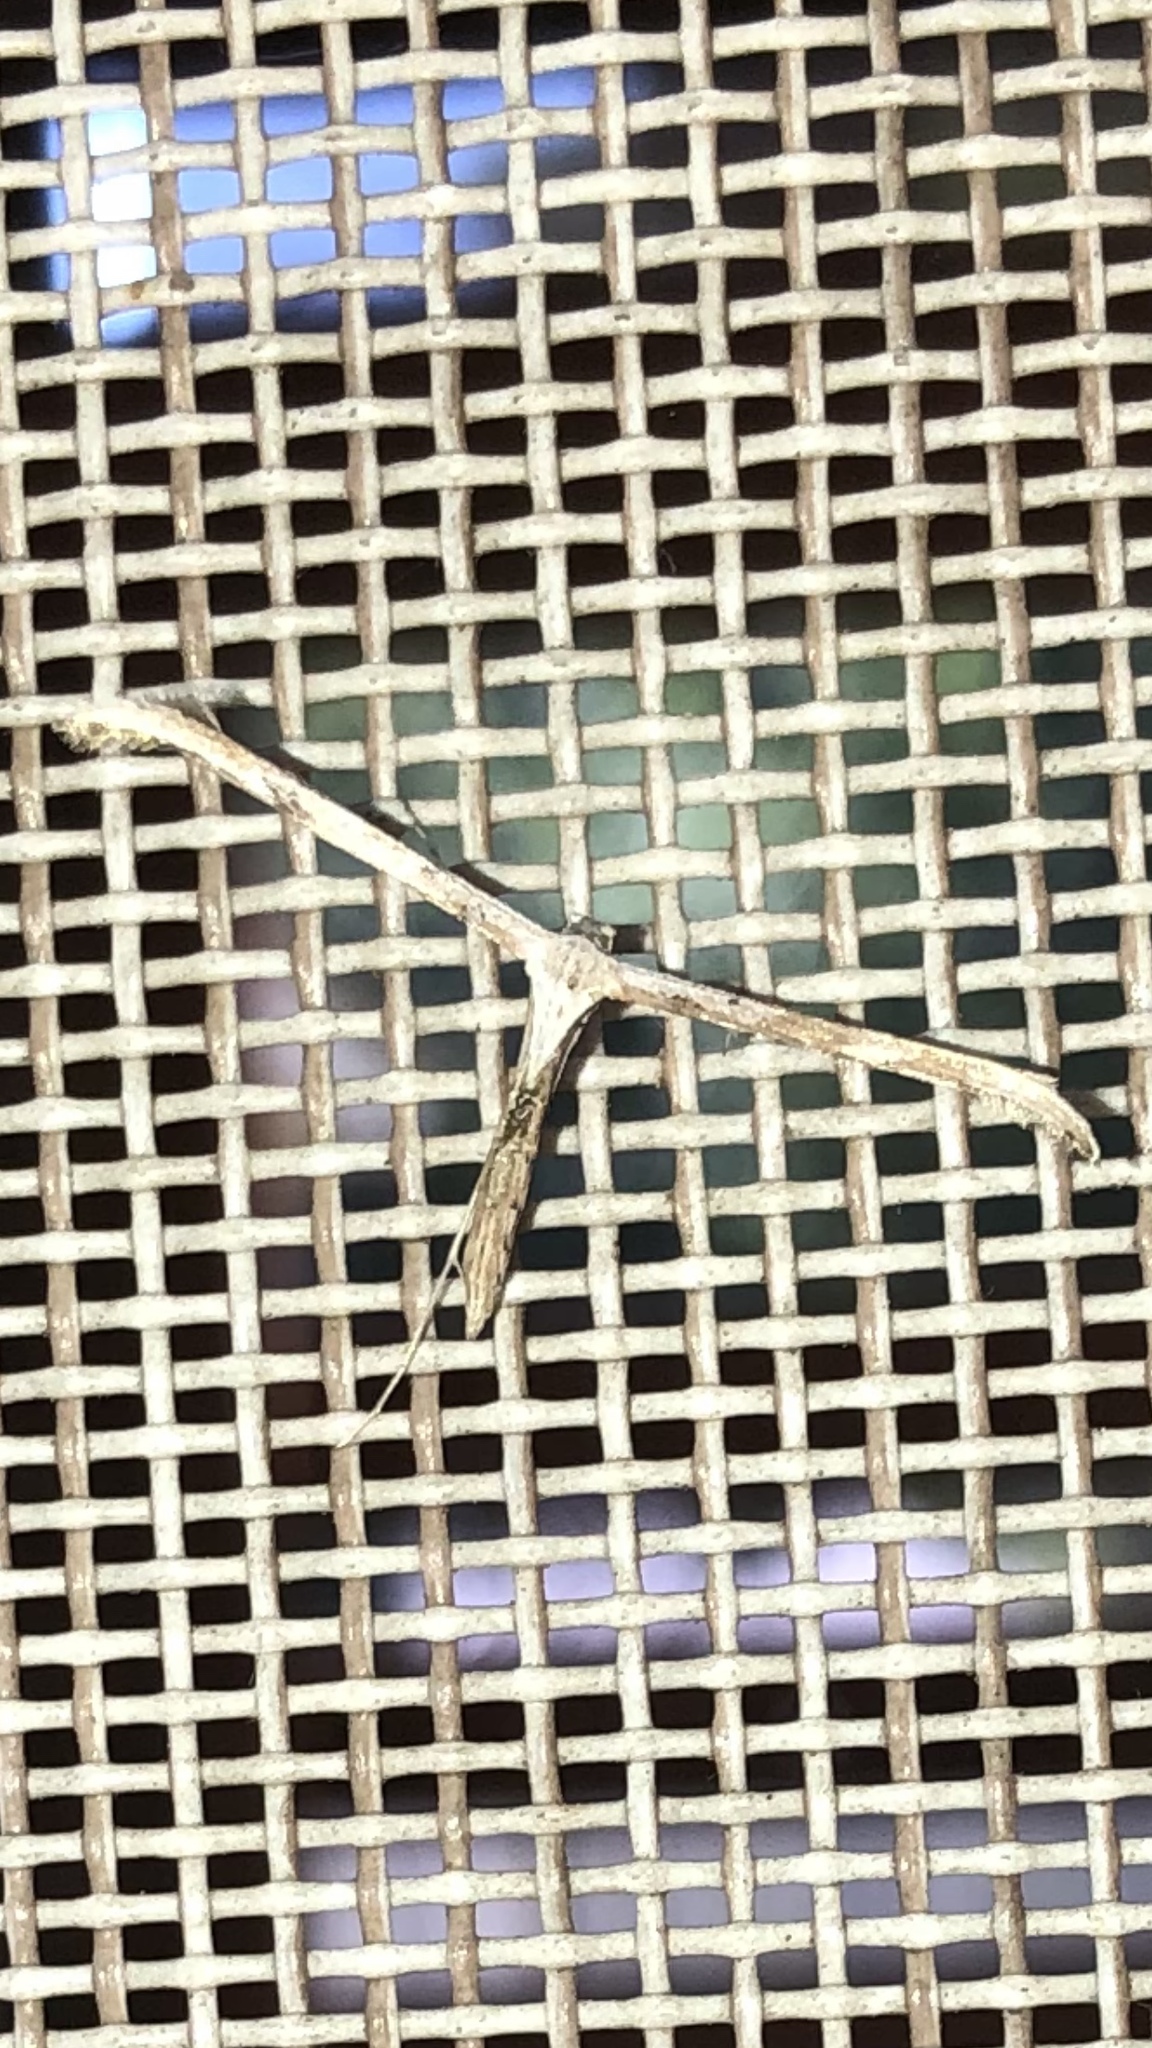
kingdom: Animalia
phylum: Arthropoda
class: Insecta
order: Lepidoptera
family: Pterophoridae
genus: Emmelina
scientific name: Emmelina monodactyla
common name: Common plume
